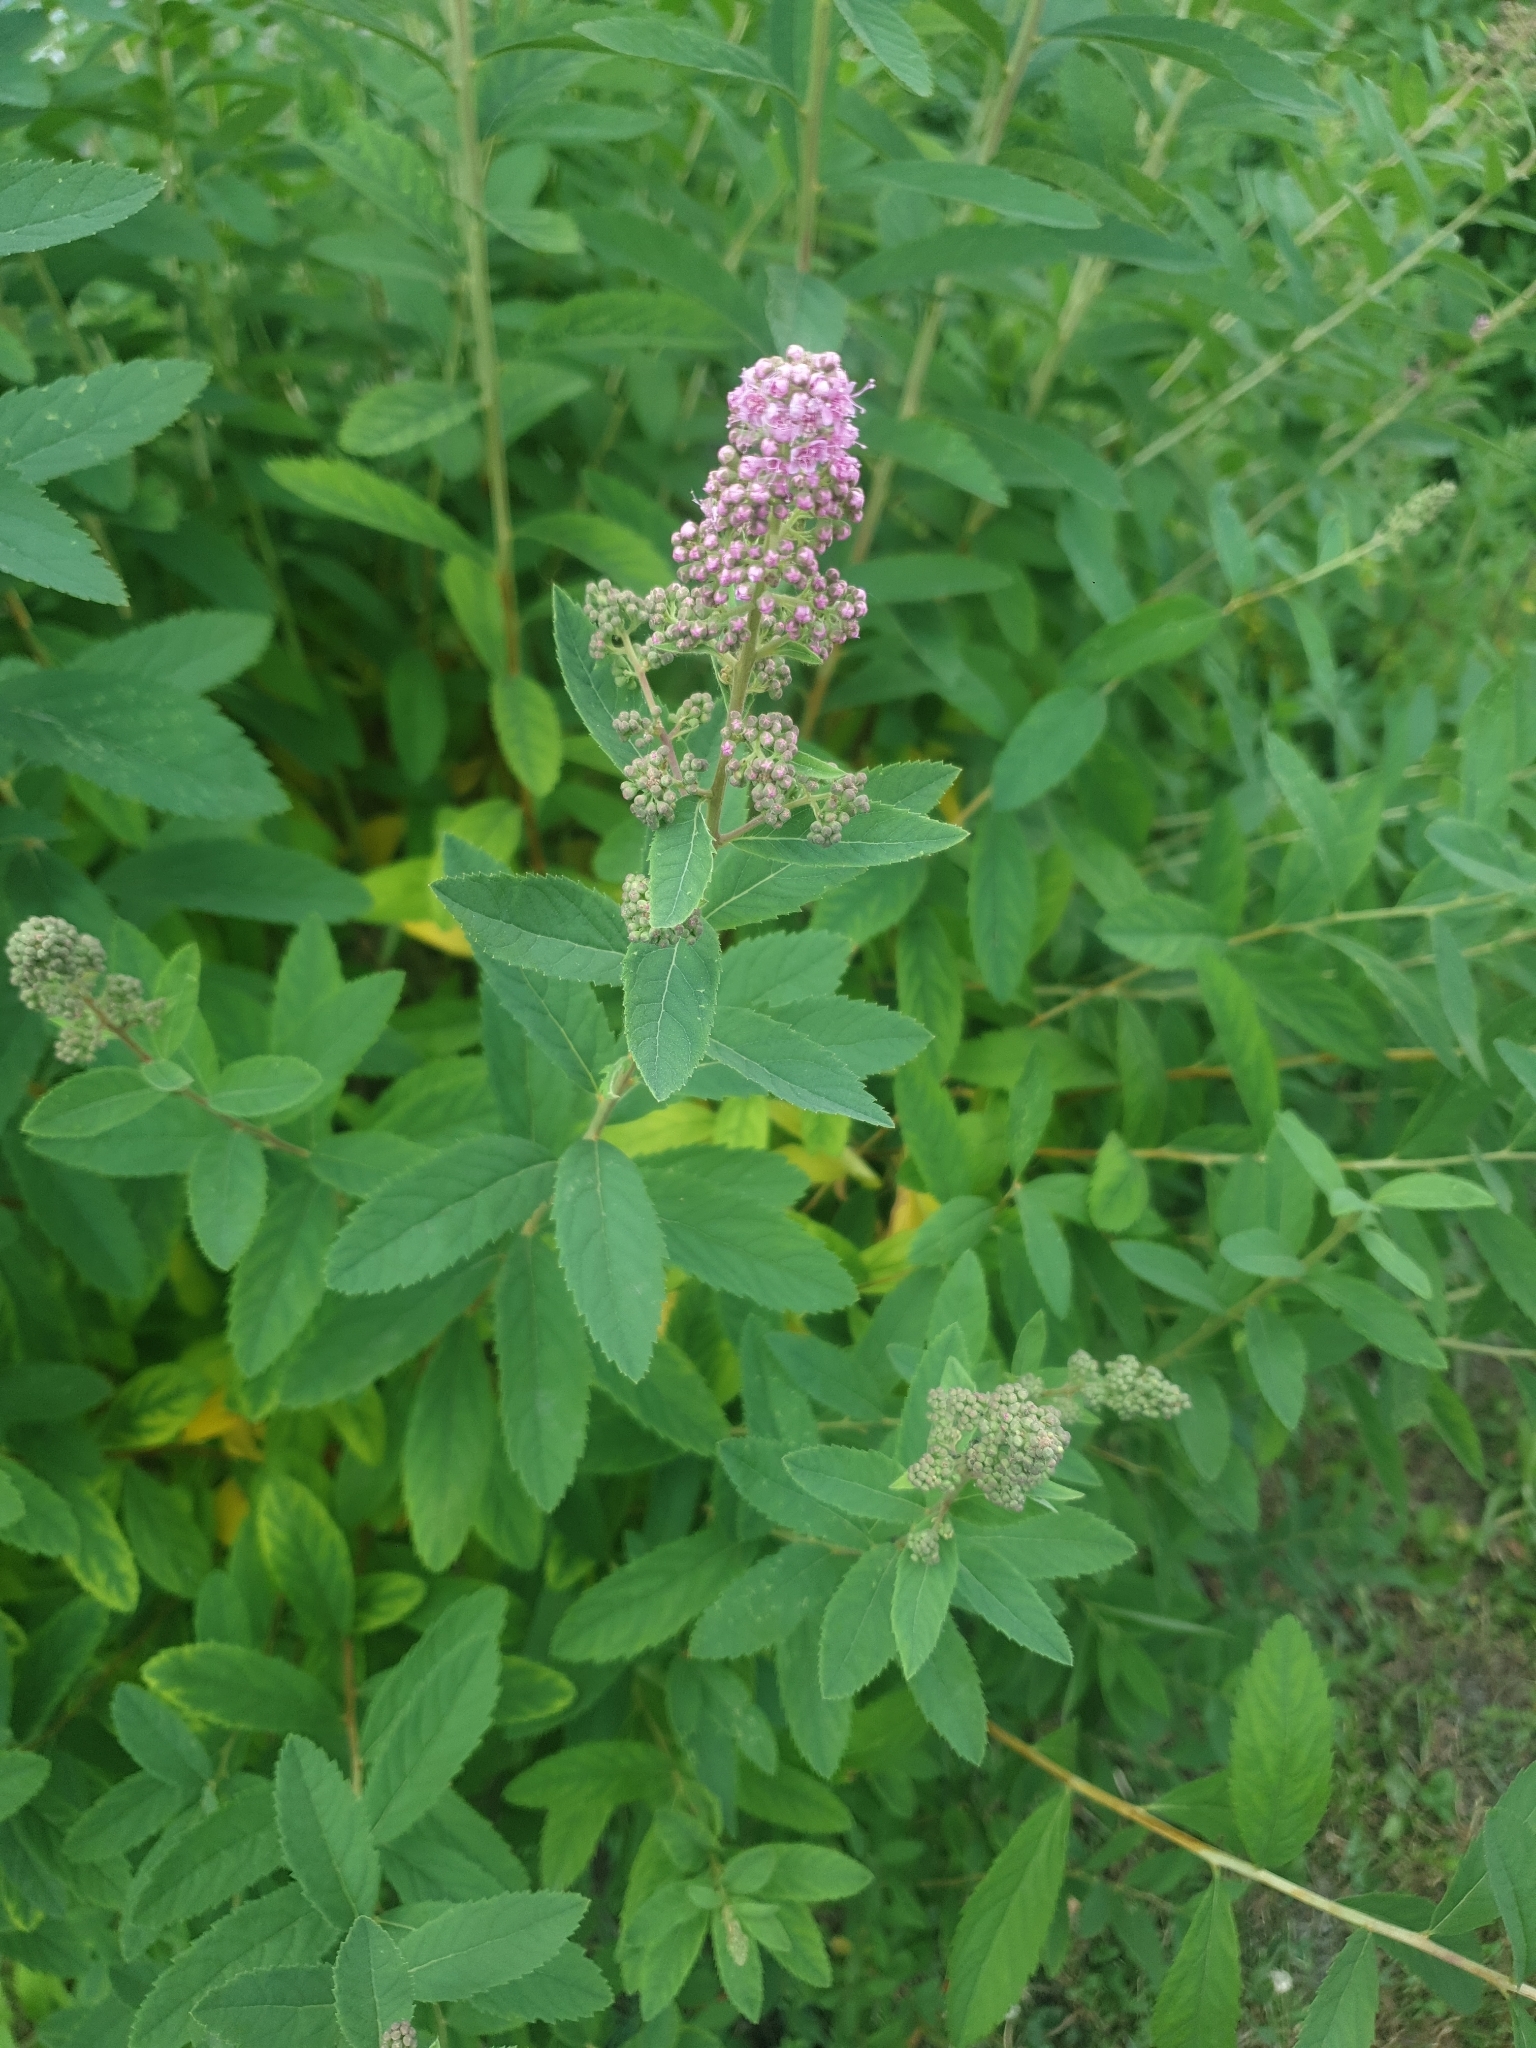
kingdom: Plantae
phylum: Tracheophyta
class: Magnoliopsida
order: Rosales
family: Rosaceae
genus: Spiraea
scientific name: Spiraea douglasii
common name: Steeplebush
